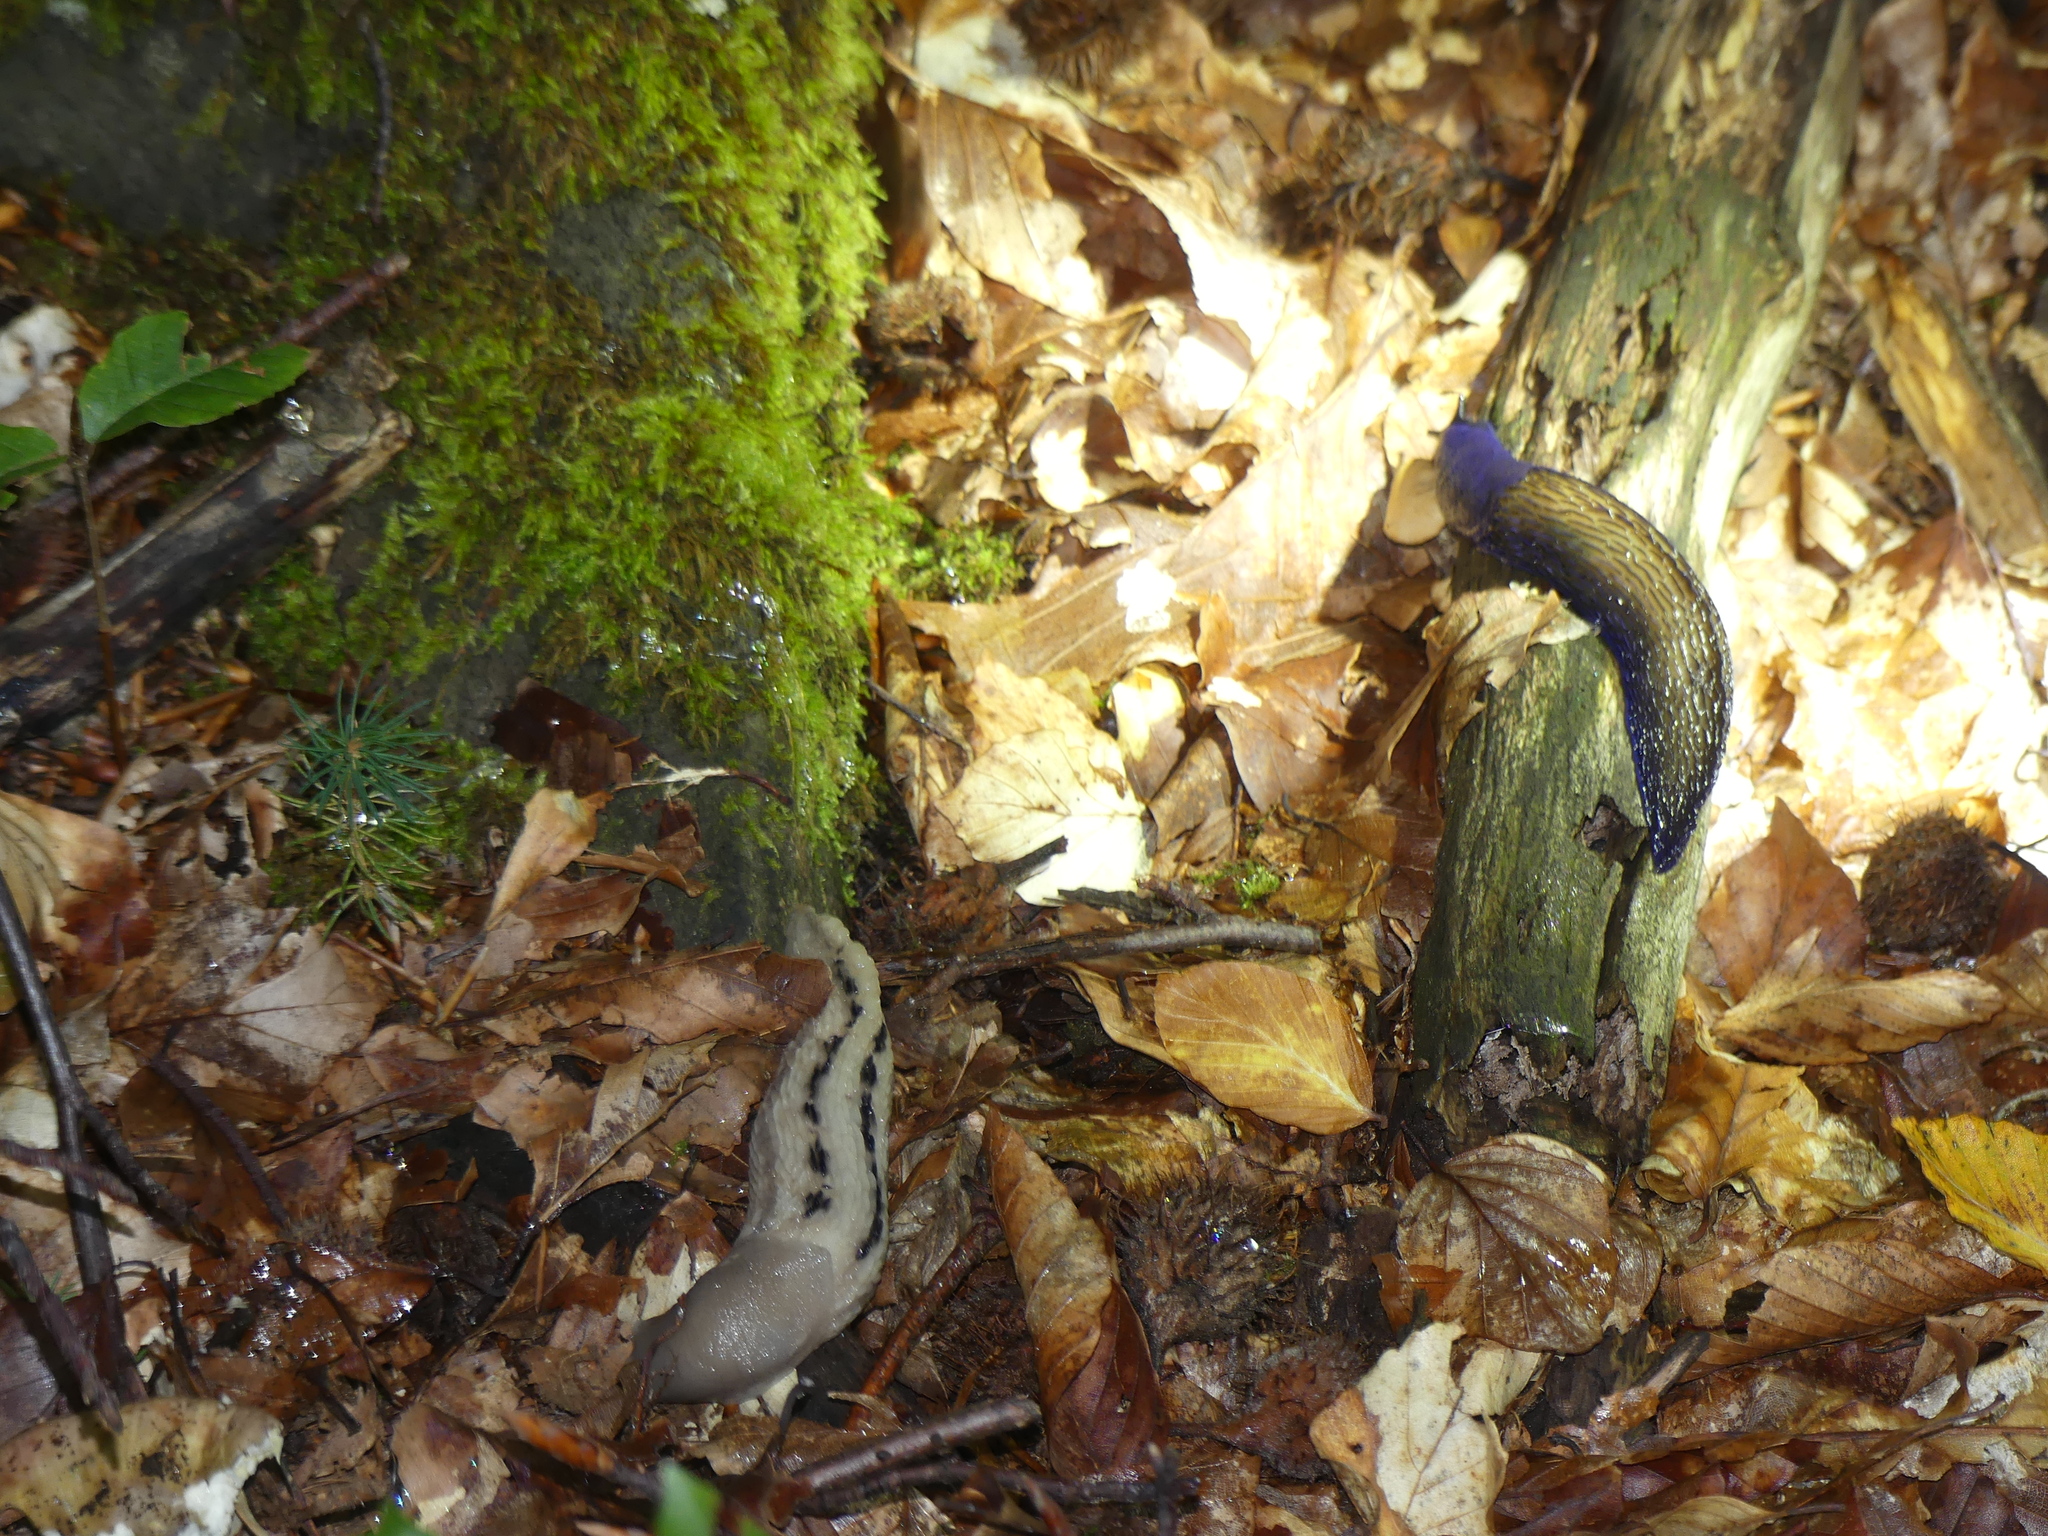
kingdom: Animalia
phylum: Mollusca
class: Gastropoda
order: Stylommatophora
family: Limacidae
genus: Bielzia
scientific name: Bielzia coerulans
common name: Carpathian blue slug
